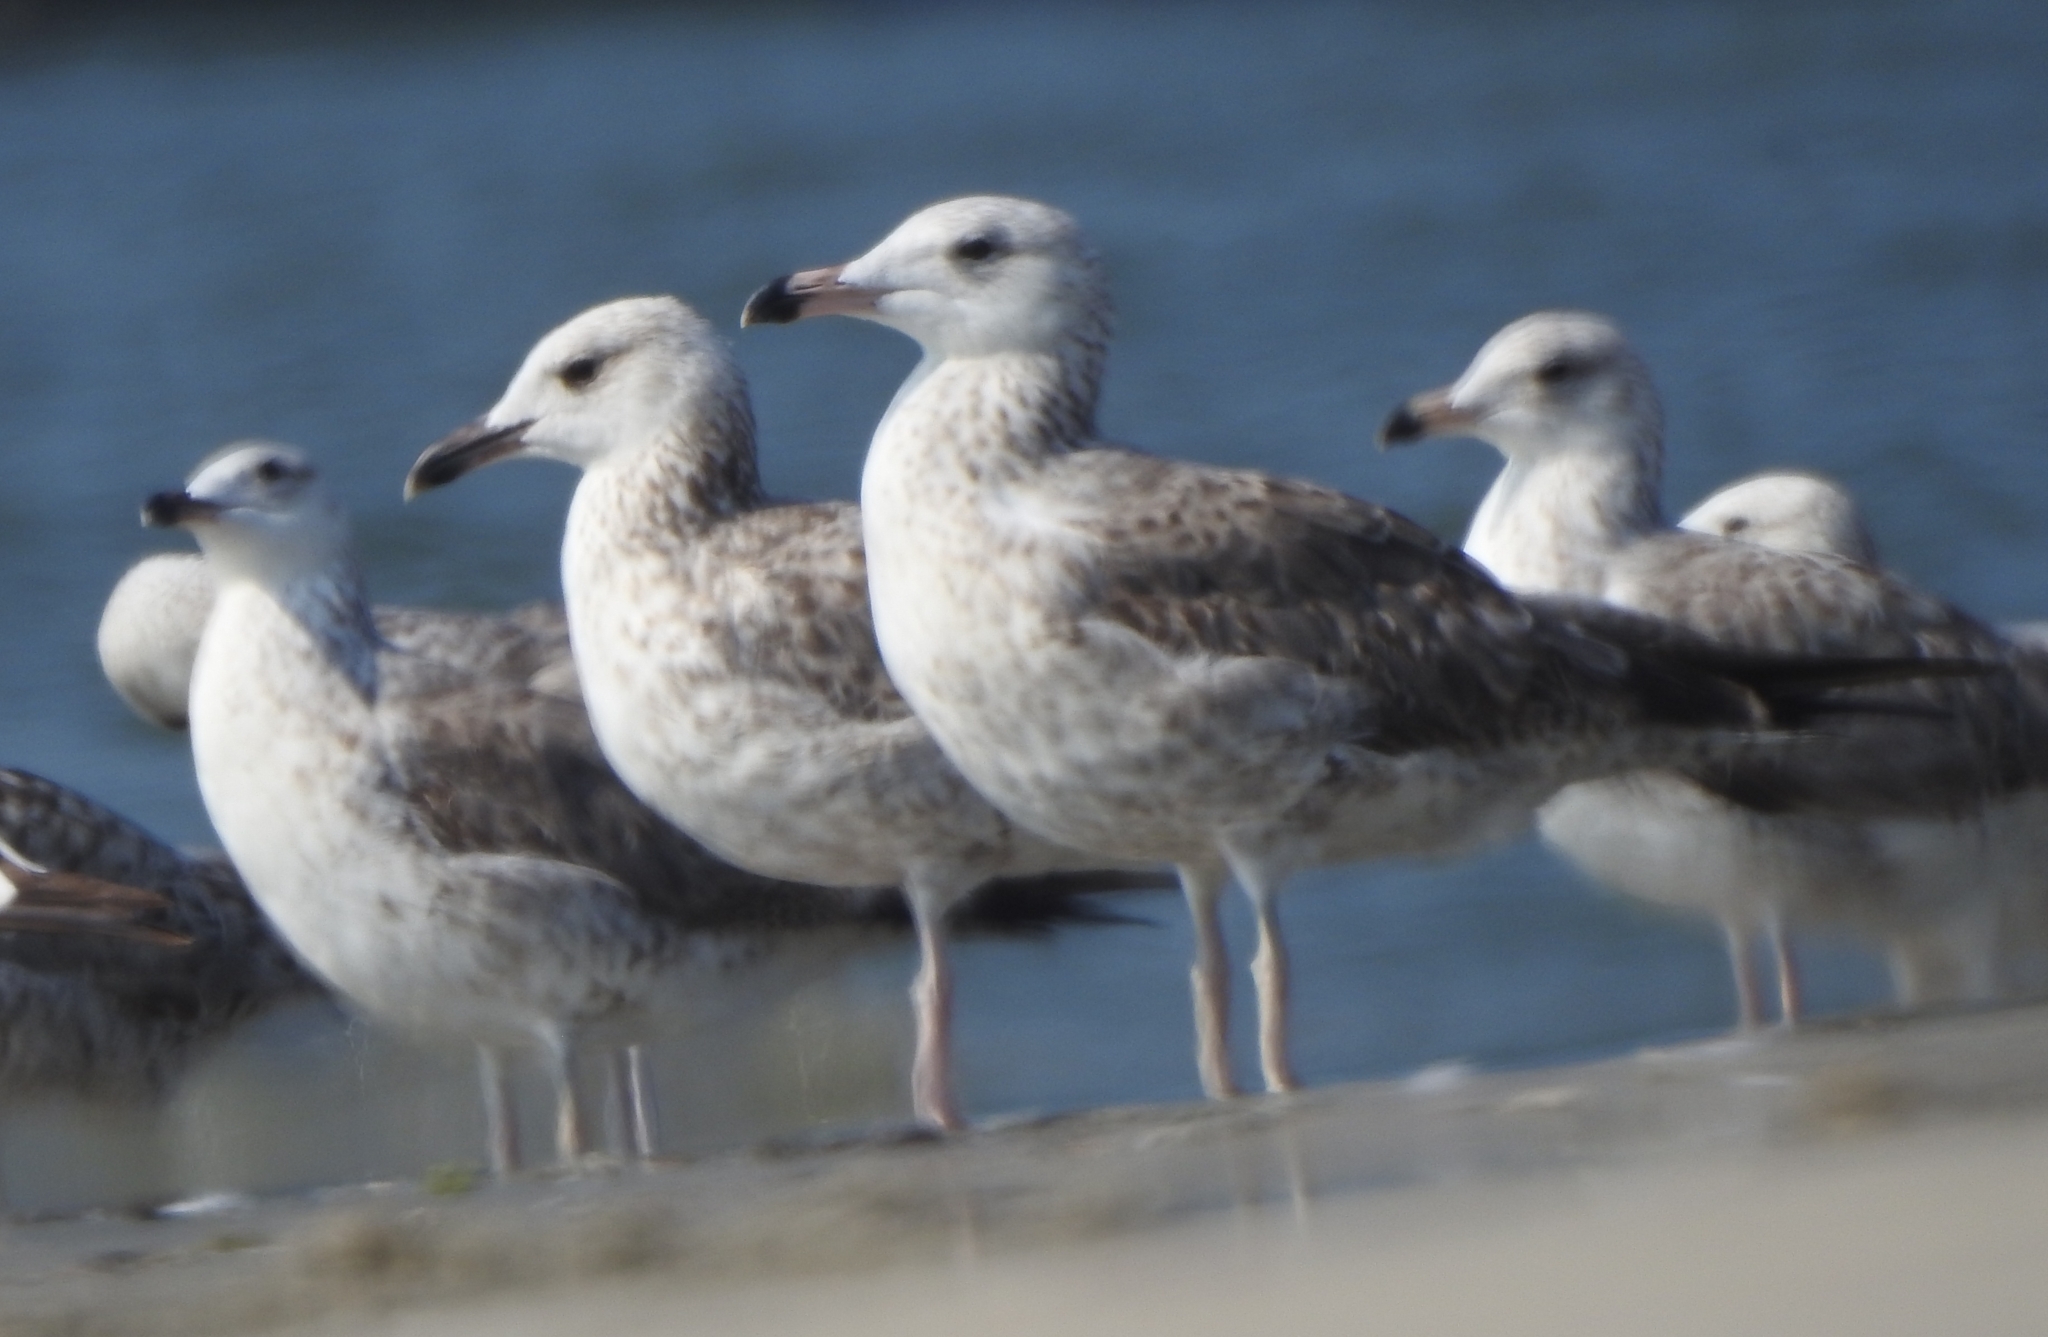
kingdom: Animalia
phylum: Chordata
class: Aves
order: Charadriiformes
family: Laridae
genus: Larus
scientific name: Larus fuscus
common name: Lesser black-backed gull
